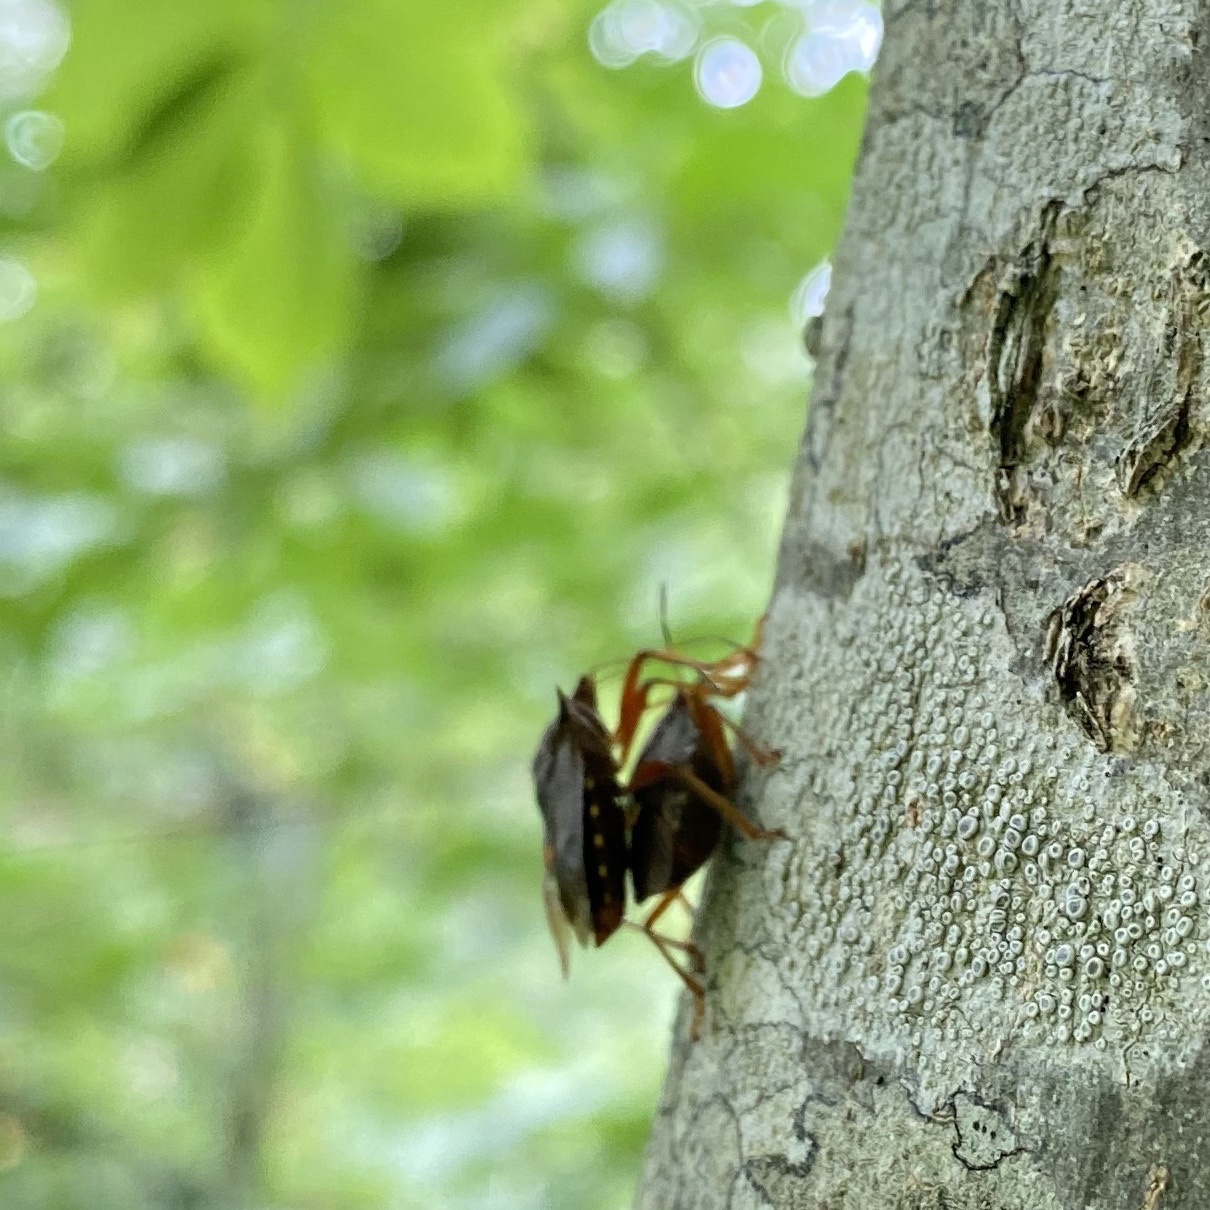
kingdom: Animalia
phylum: Arthropoda
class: Insecta
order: Hemiptera
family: Pentatomidae
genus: Pentatoma
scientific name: Pentatoma rufipes
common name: Forest bug
